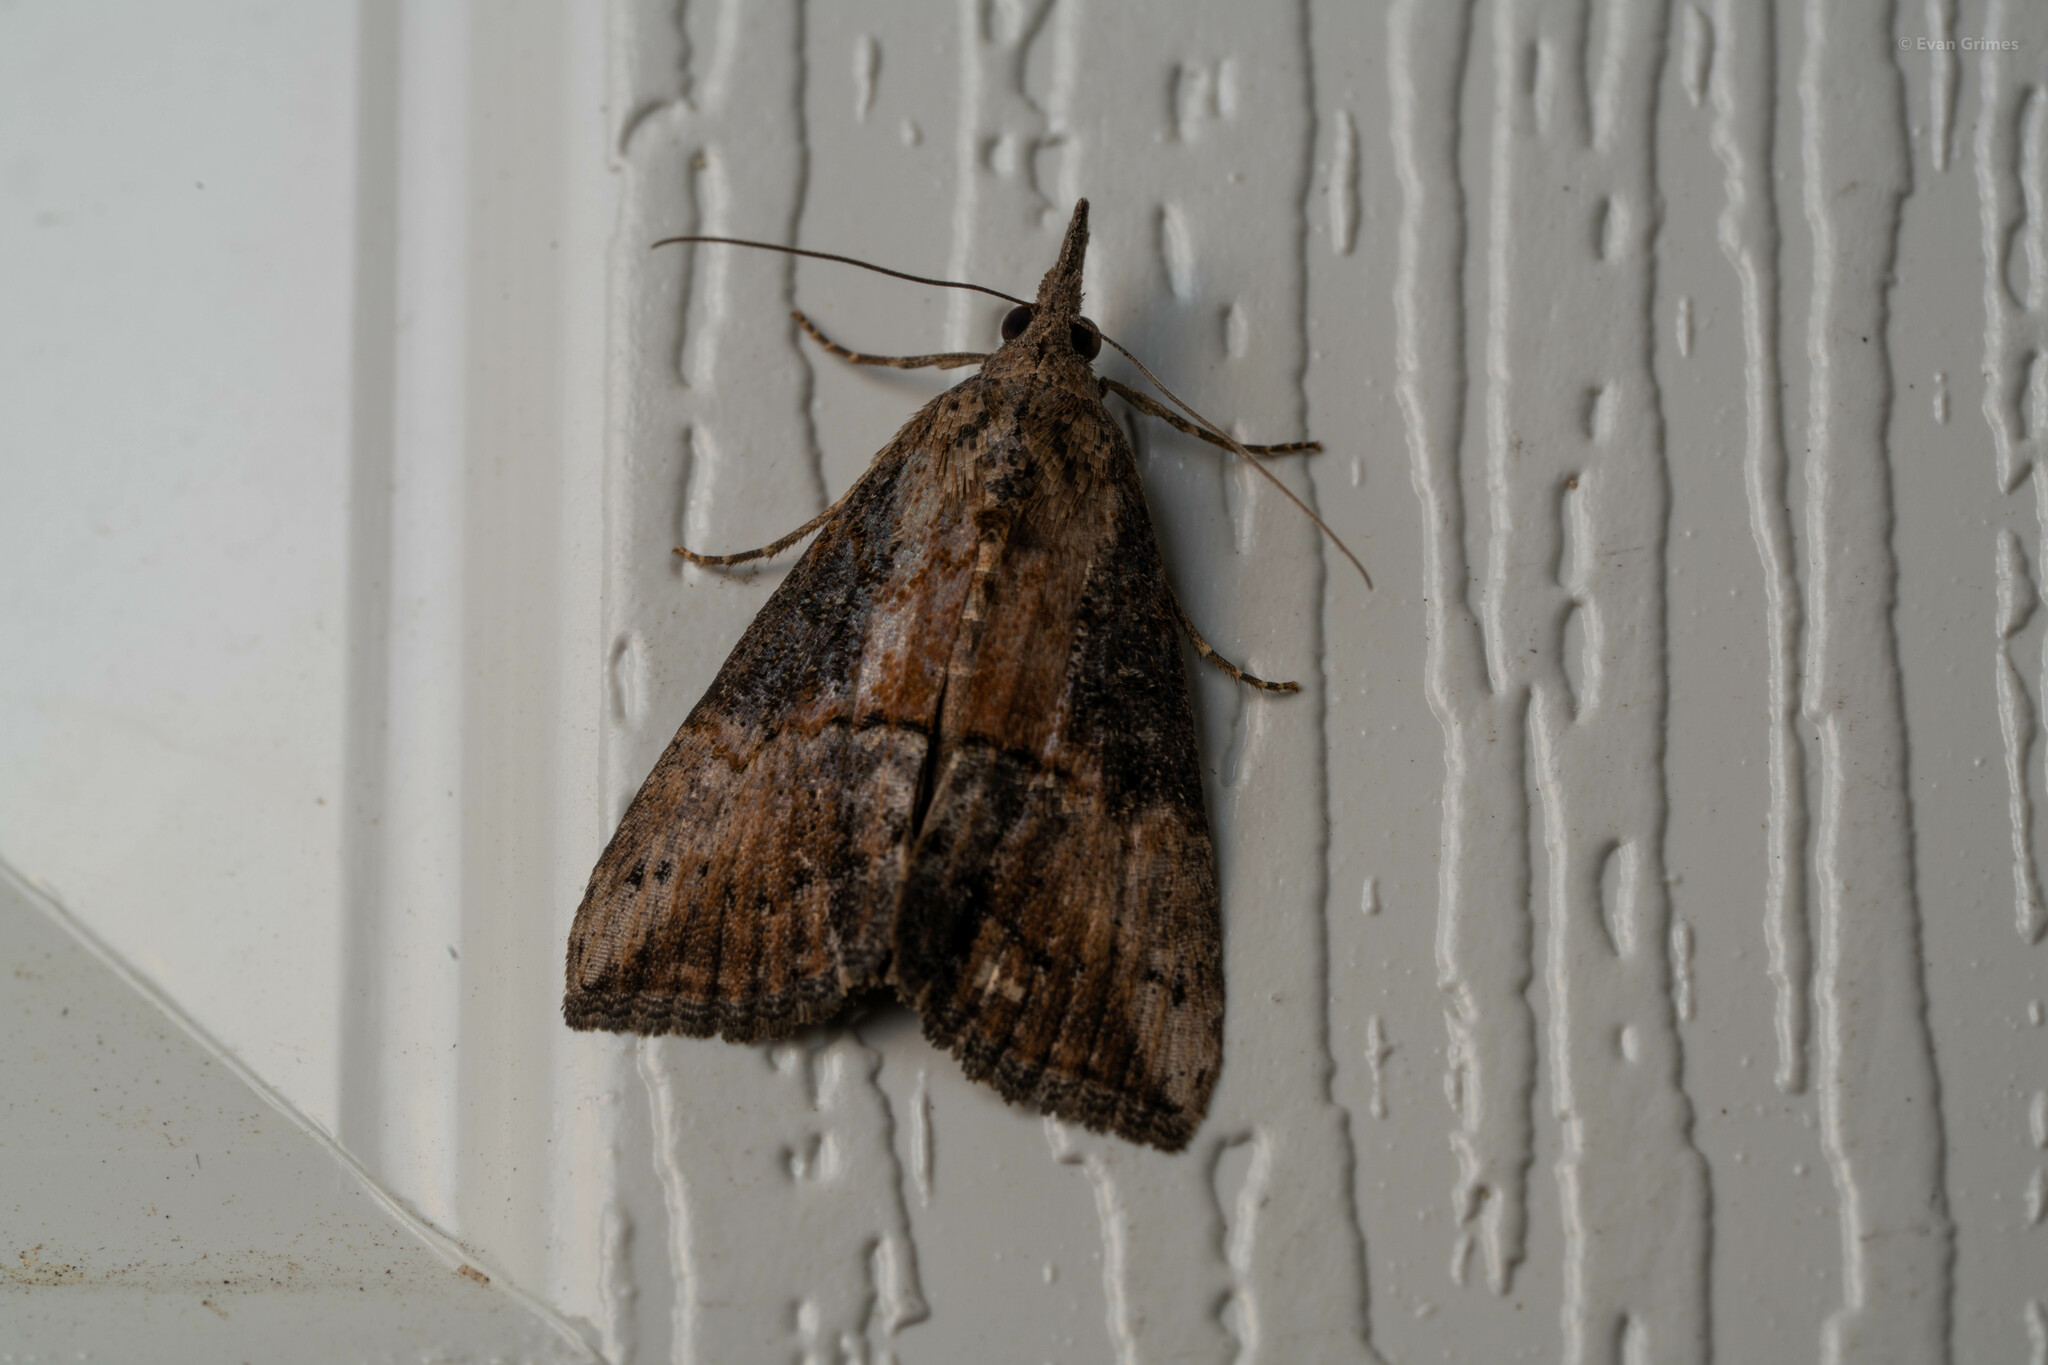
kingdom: Animalia
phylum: Arthropoda
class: Insecta
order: Lepidoptera
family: Erebidae
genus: Hypena
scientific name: Hypena scabra
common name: Green cloverworm
